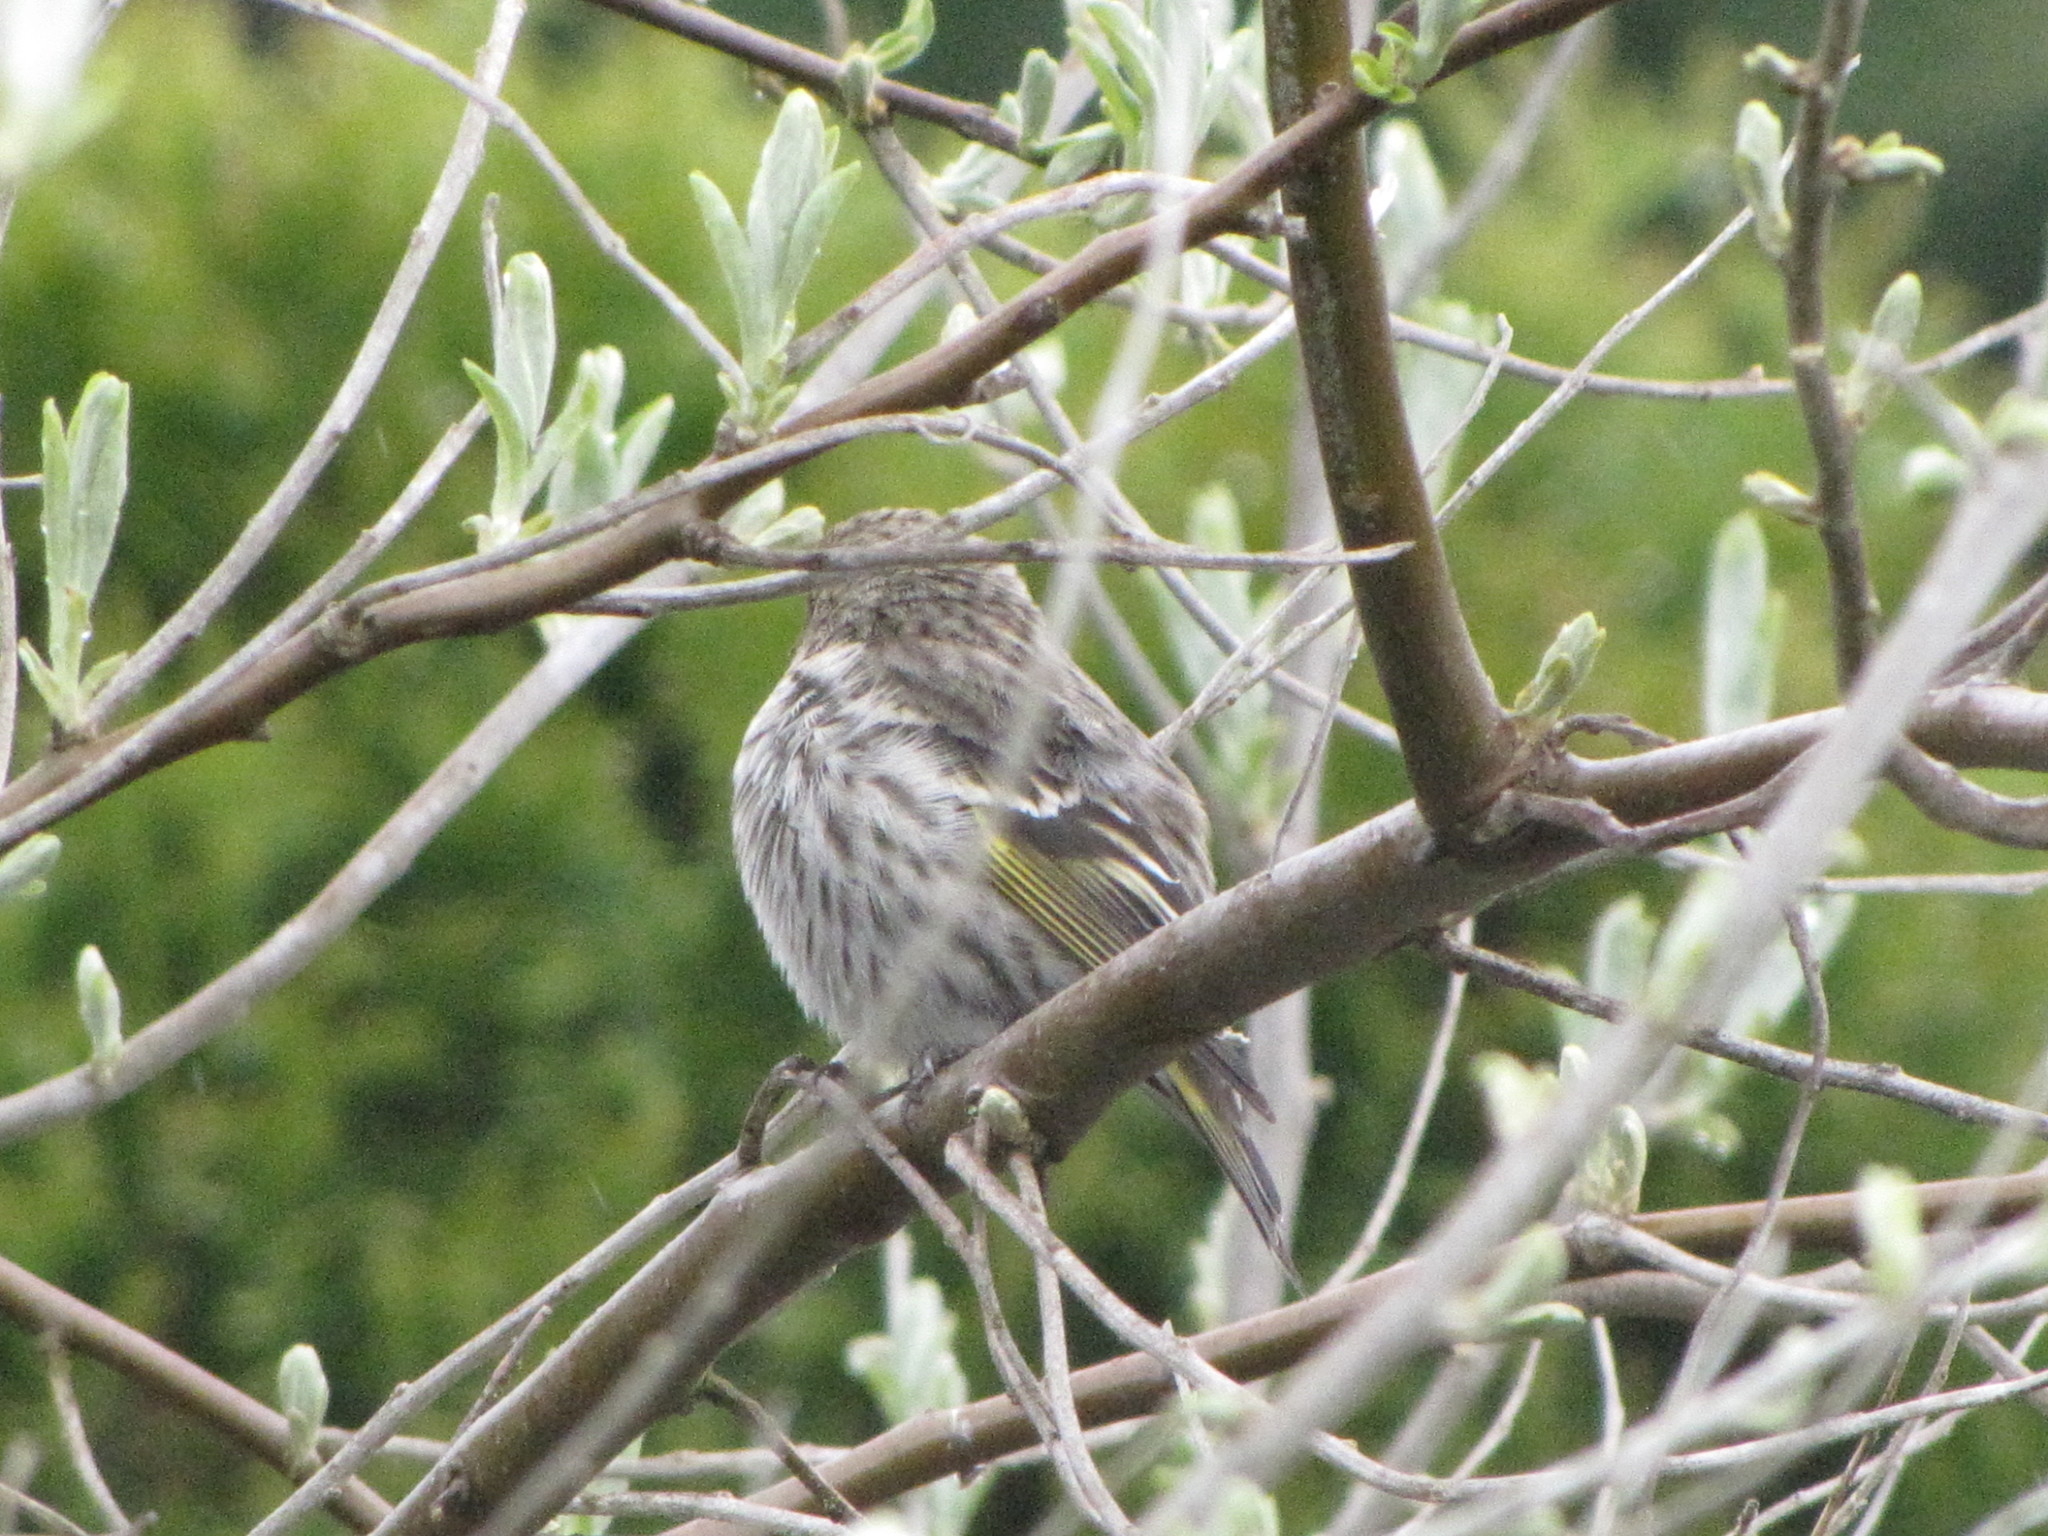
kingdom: Animalia
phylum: Chordata
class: Aves
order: Passeriformes
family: Fringillidae
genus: Spinus
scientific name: Spinus pinus
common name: Pine siskin
